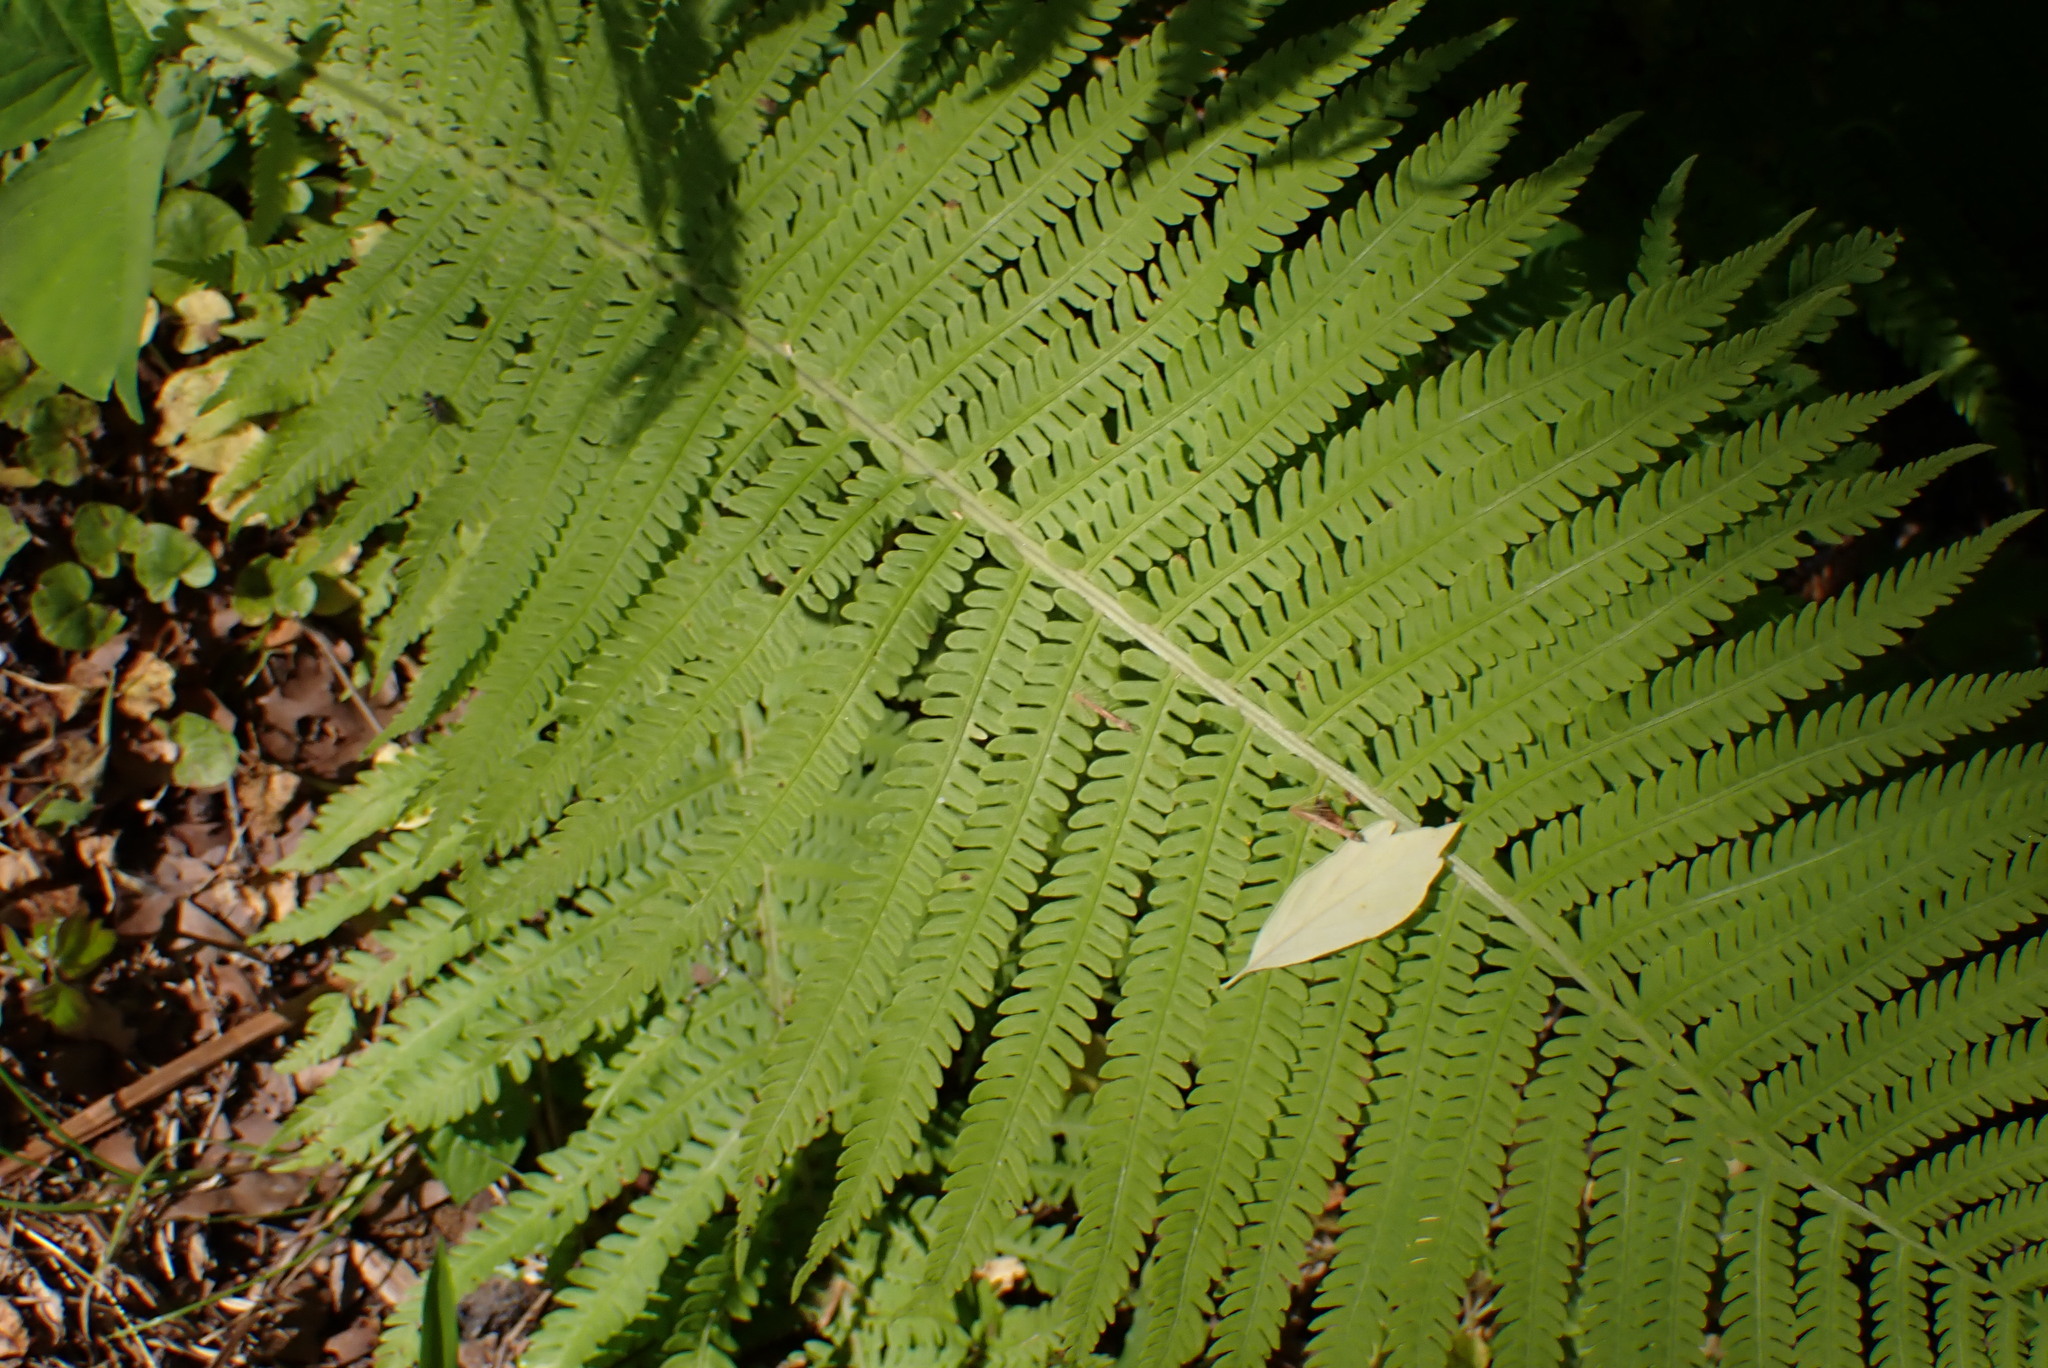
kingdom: Plantae
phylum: Tracheophyta
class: Polypodiopsida
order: Polypodiales
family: Onocleaceae
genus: Matteuccia
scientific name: Matteuccia struthiopteris
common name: Ostrich fern
